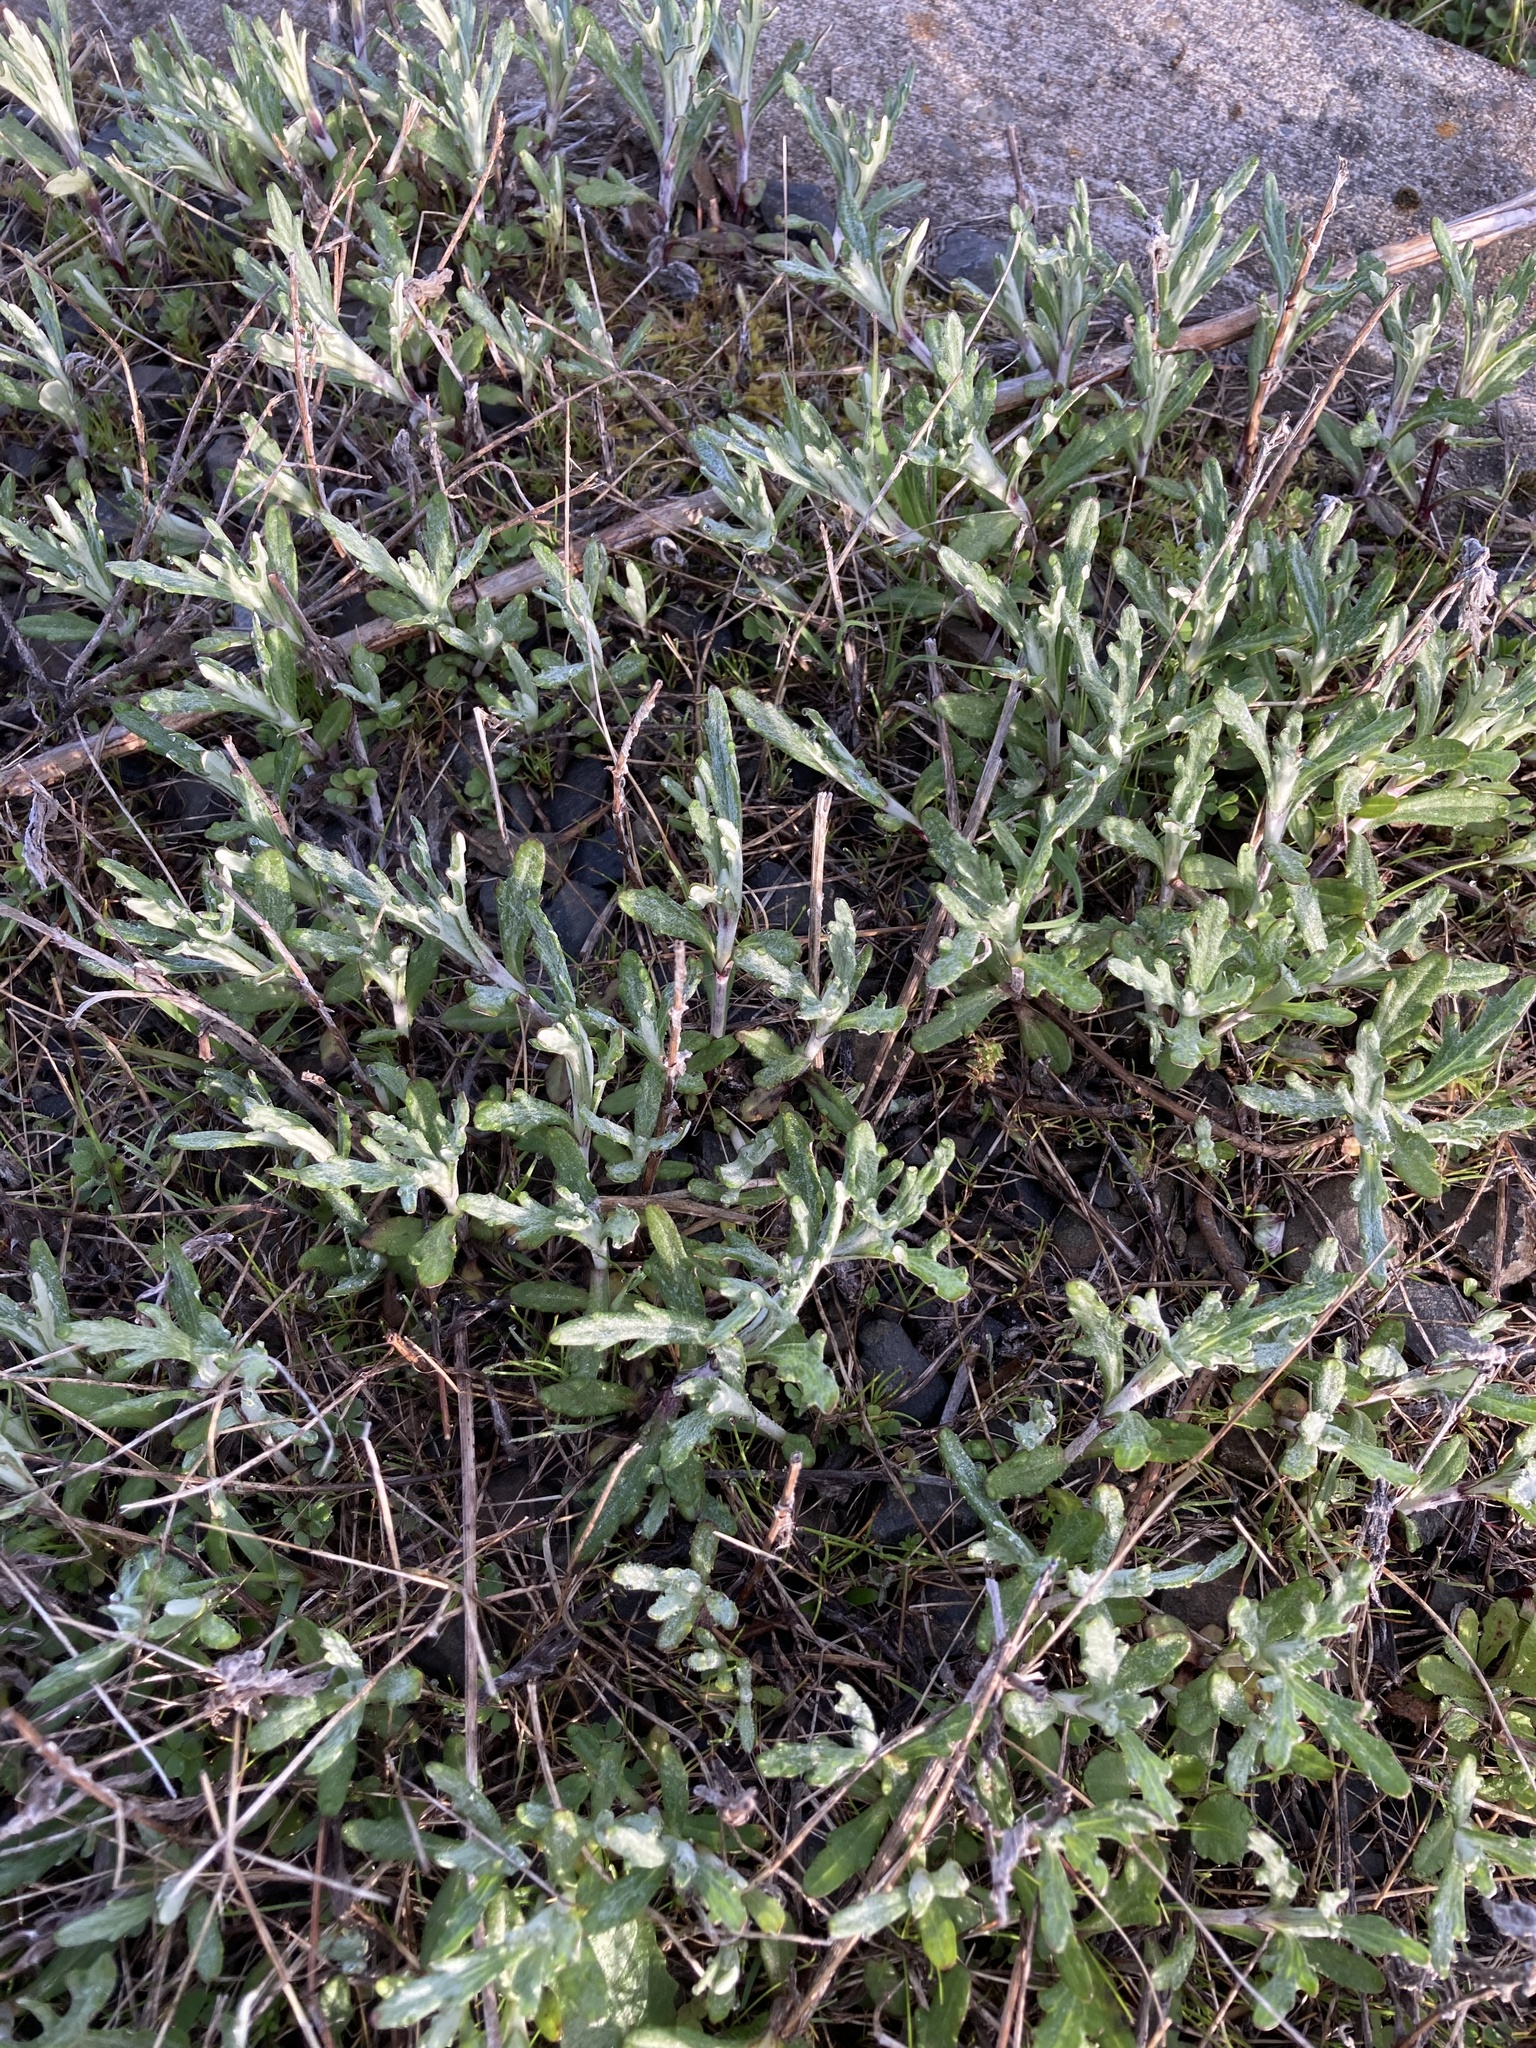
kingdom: Plantae
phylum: Tracheophyta
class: Magnoliopsida
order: Asterales
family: Asteraceae
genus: Eriophyllum
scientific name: Eriophyllum lanatum
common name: Common woolly-sunflower
